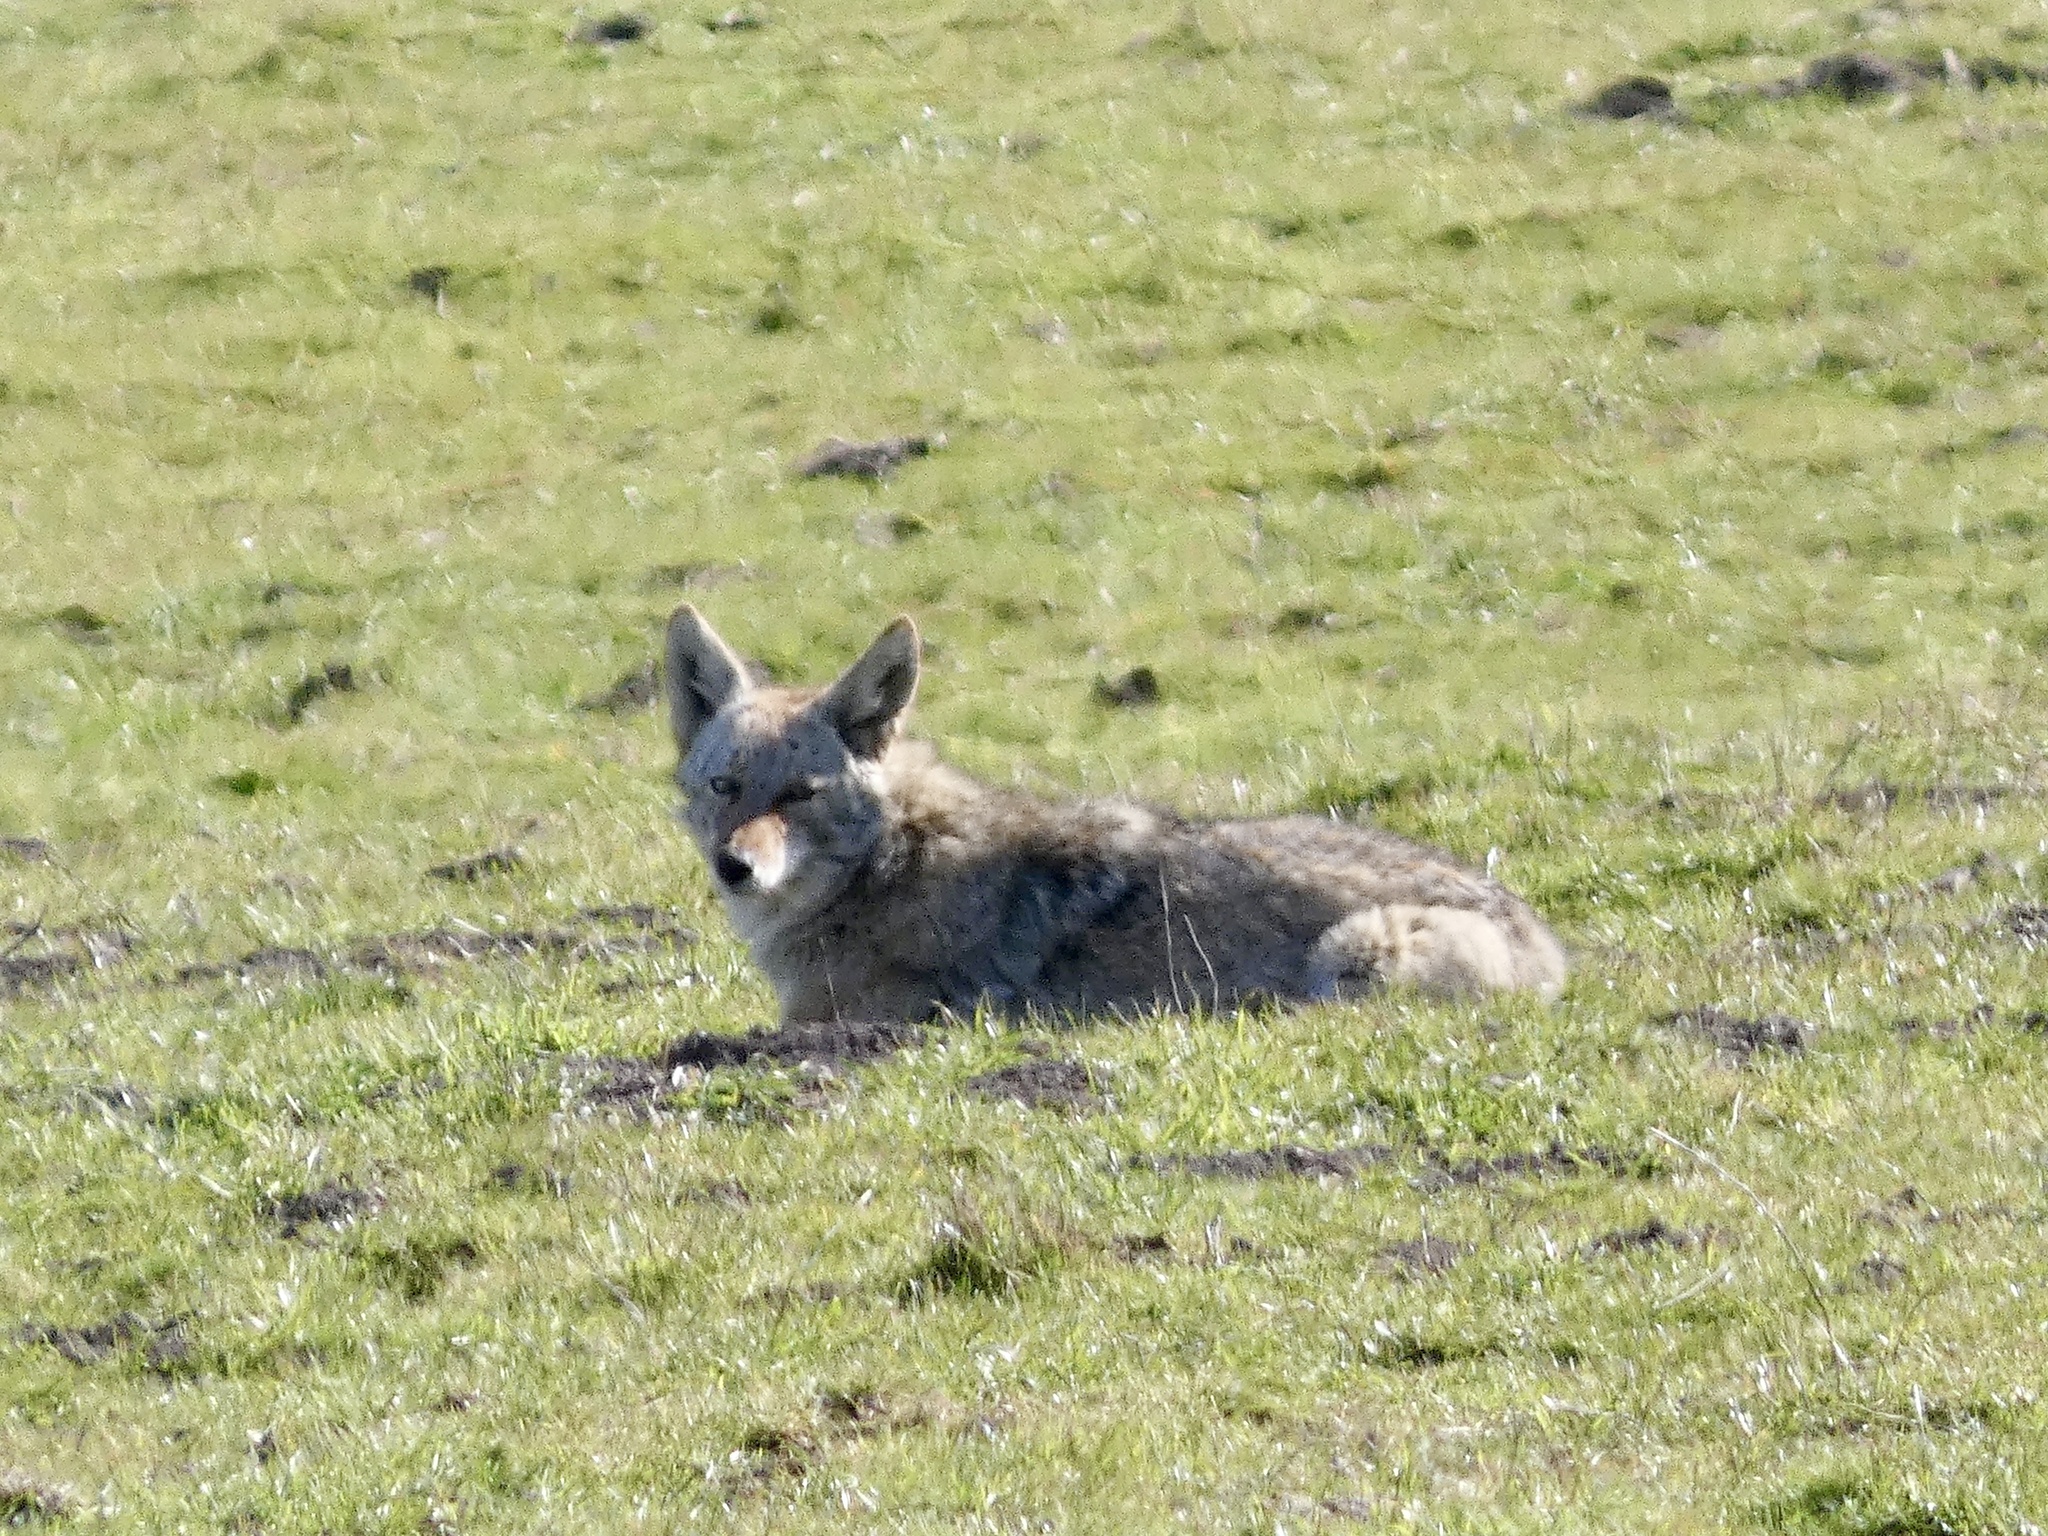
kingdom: Animalia
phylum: Chordata
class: Mammalia
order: Carnivora
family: Canidae
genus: Canis
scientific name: Canis latrans
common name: Coyote
